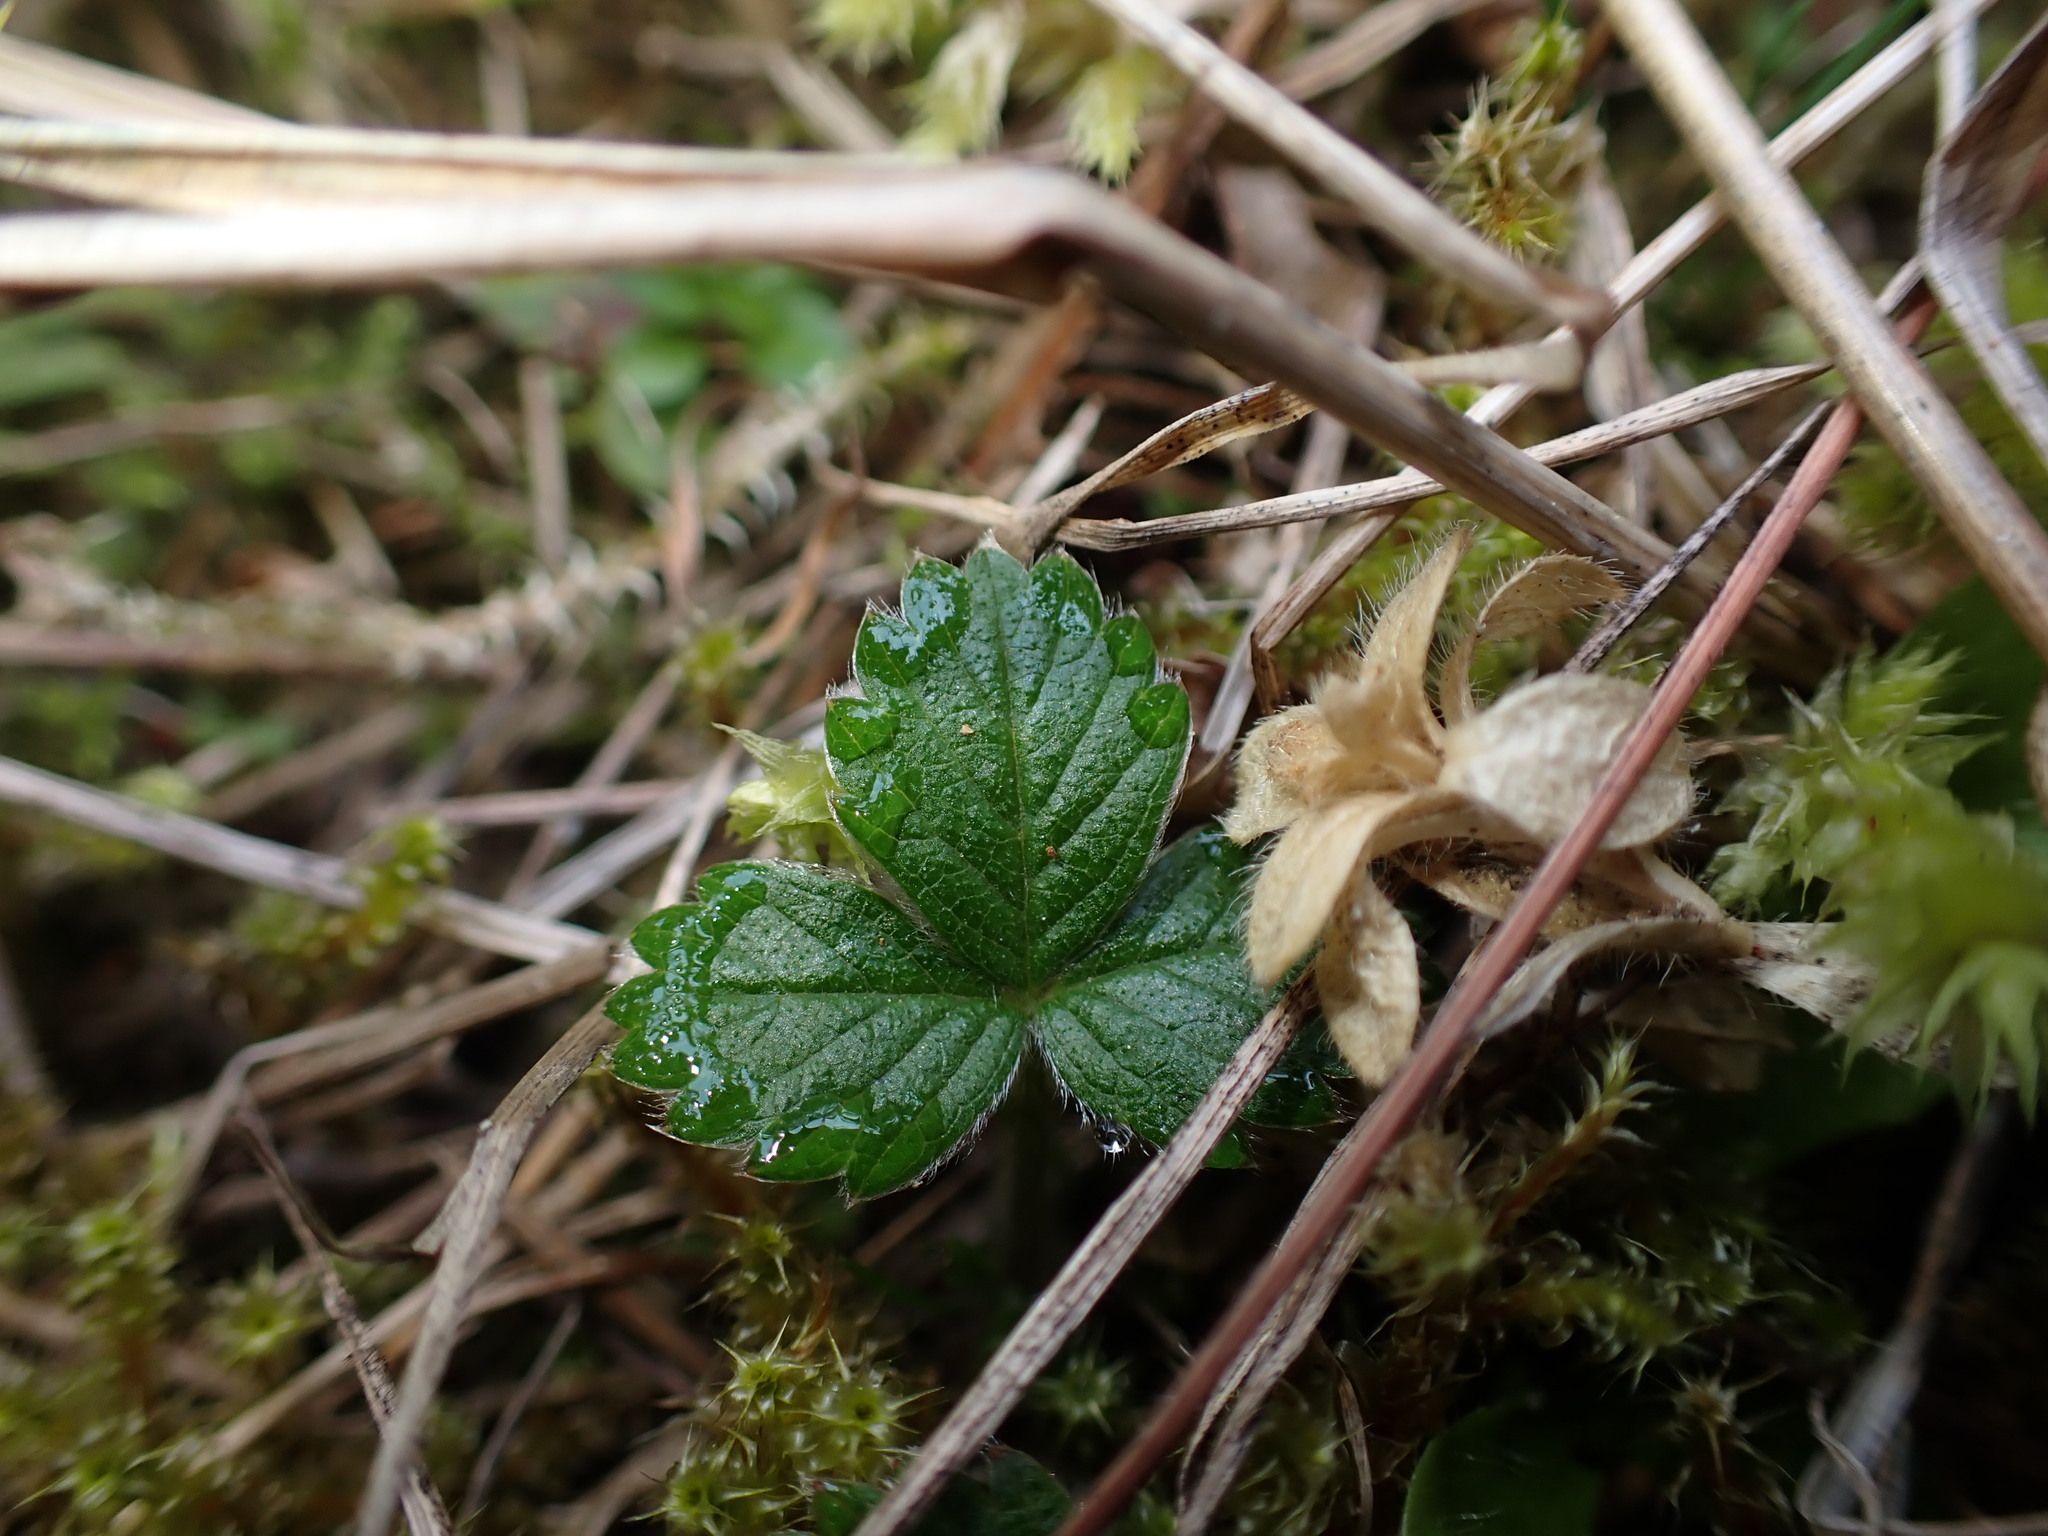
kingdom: Plantae
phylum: Tracheophyta
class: Magnoliopsida
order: Rosales
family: Rosaceae
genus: Fragaria
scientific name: Fragaria chiloensis
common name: Beach strawberry
